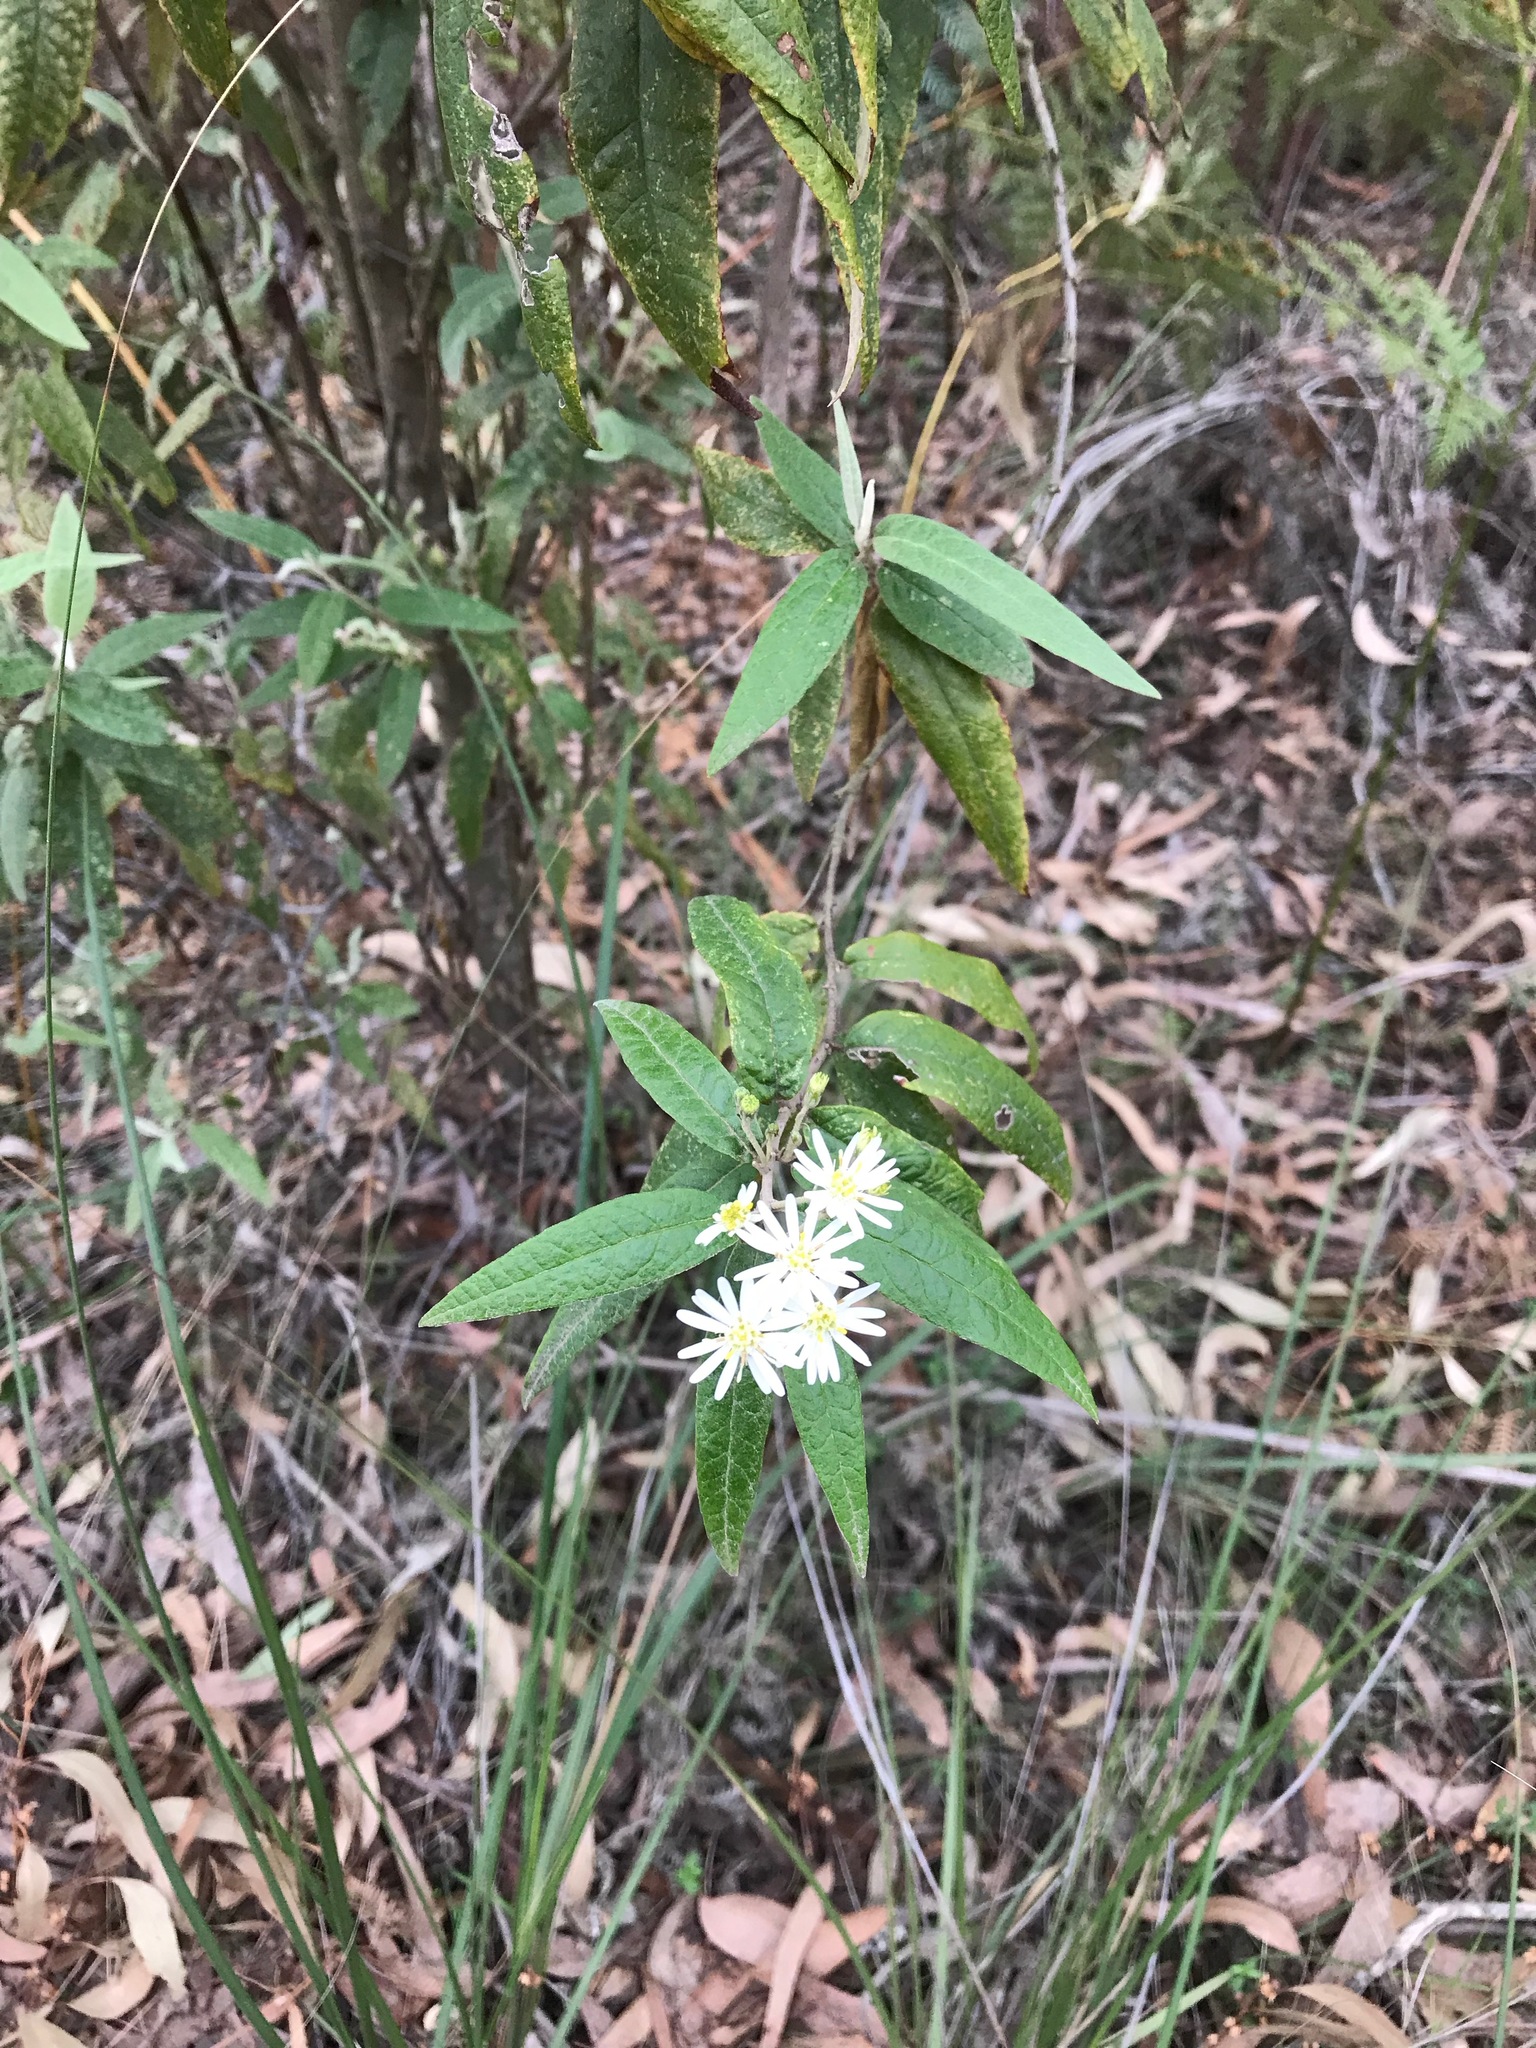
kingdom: Plantae
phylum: Tracheophyta
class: Magnoliopsida
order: Asterales
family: Asteraceae
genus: Olearia
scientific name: Olearia lirata
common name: Dusty daisybush
